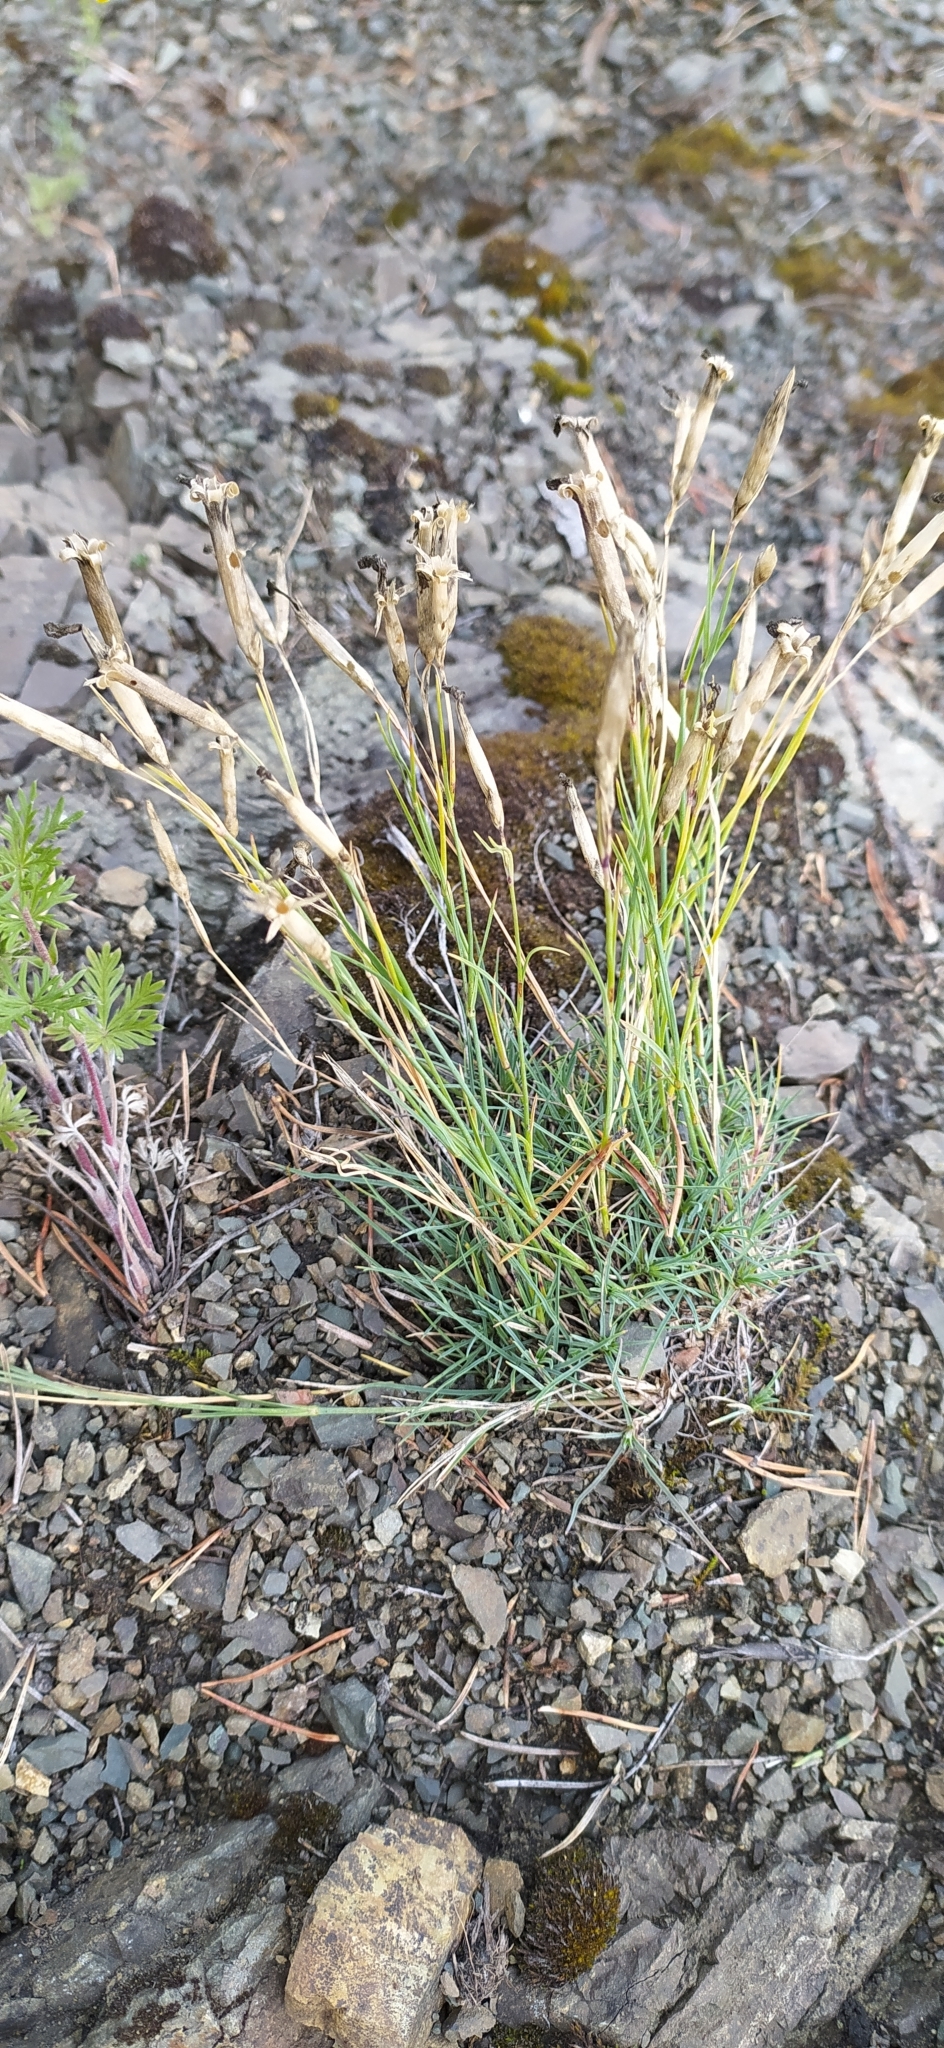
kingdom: Plantae
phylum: Tracheophyta
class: Magnoliopsida
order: Caryophyllales
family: Caryophyllaceae
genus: Dianthus
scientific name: Dianthus acicularis
